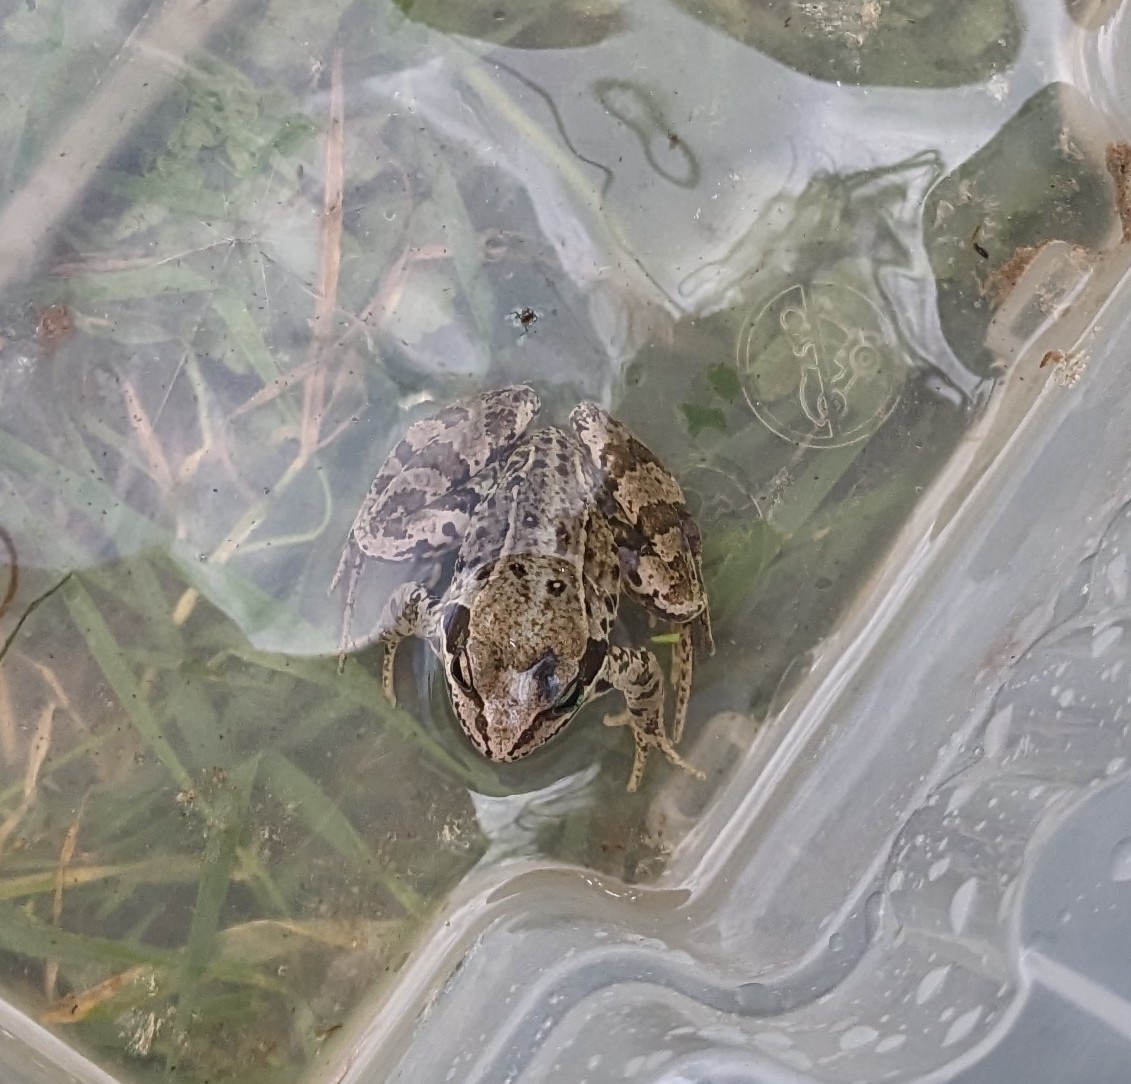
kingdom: Animalia
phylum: Chordata
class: Amphibia
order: Anura
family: Ranidae
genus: Rana
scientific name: Rana temporaria
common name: Common frog
